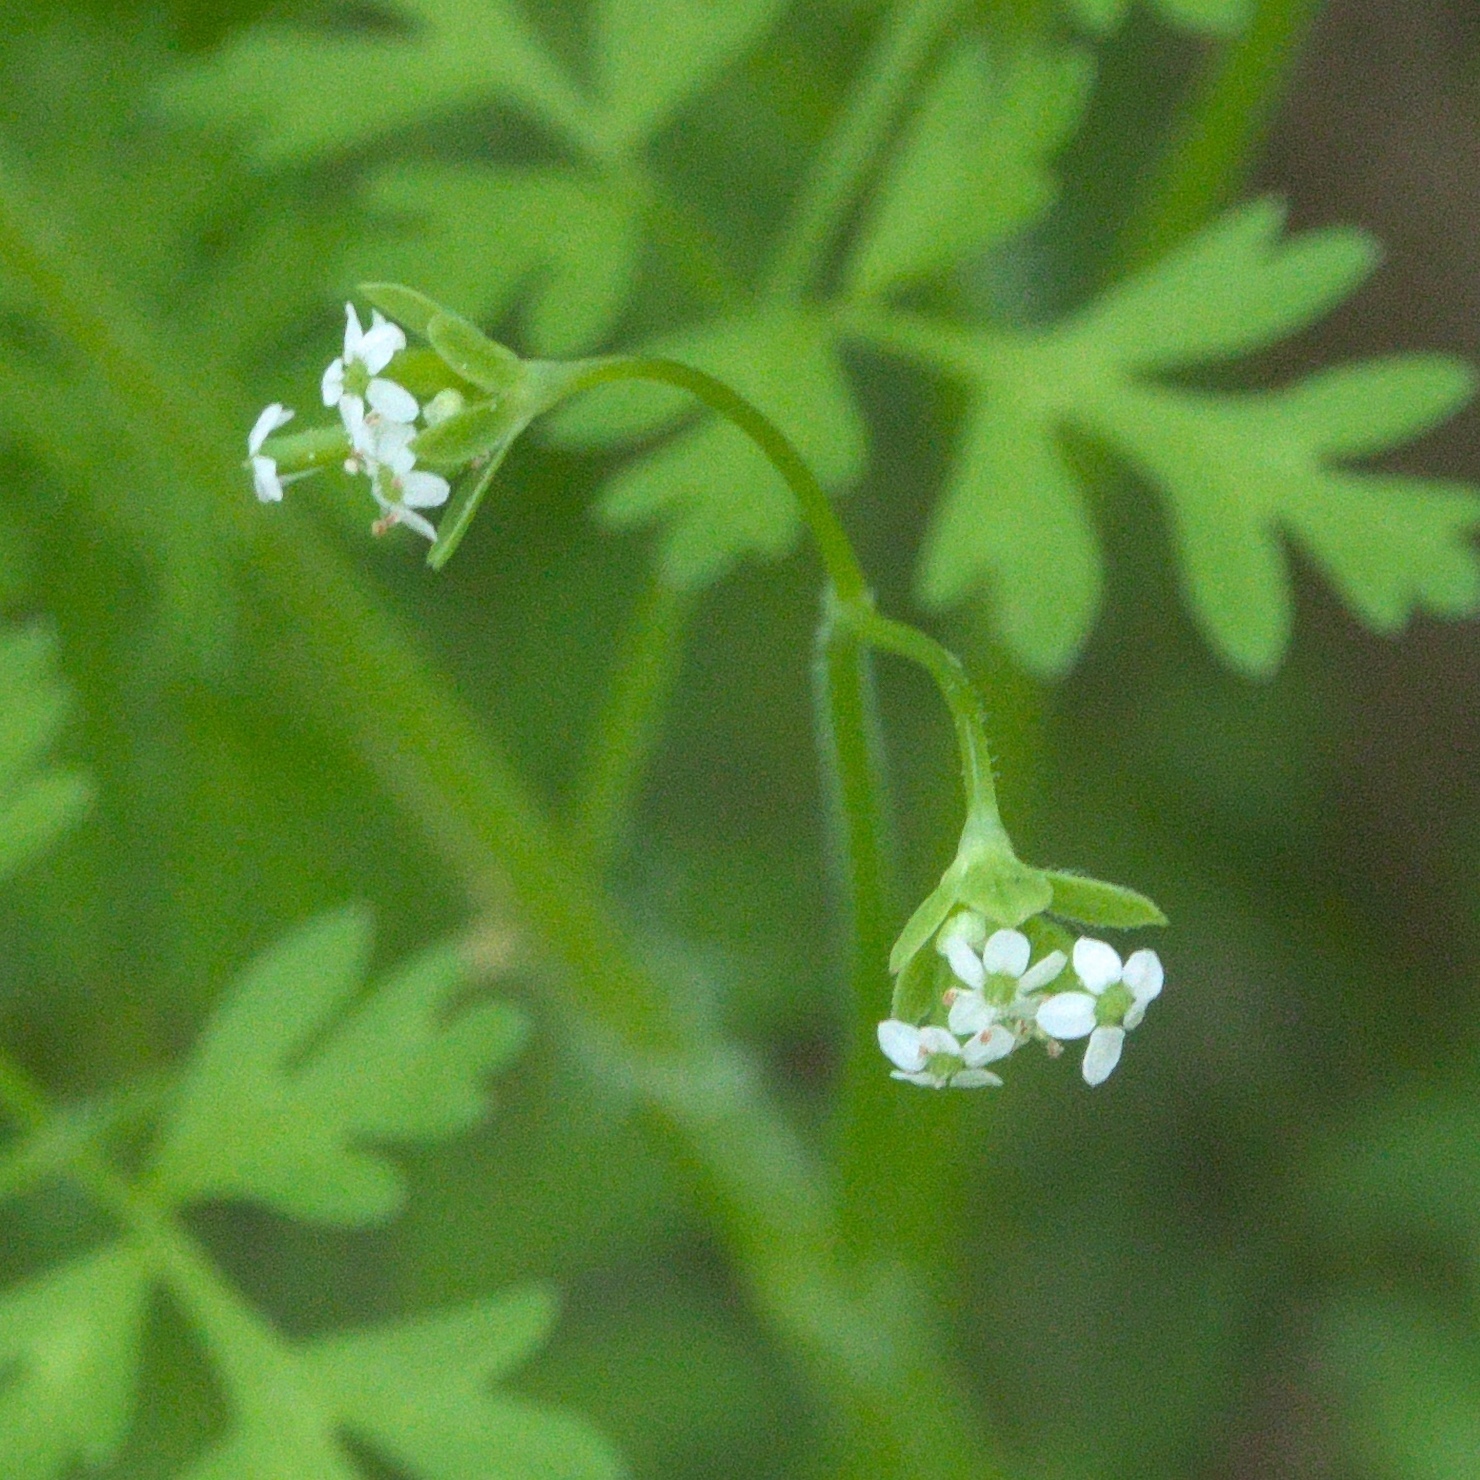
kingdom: Plantae
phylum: Tracheophyta
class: Magnoliopsida
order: Apiales
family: Apiaceae
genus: Chaerophyllum
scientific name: Chaerophyllum tainturieri
